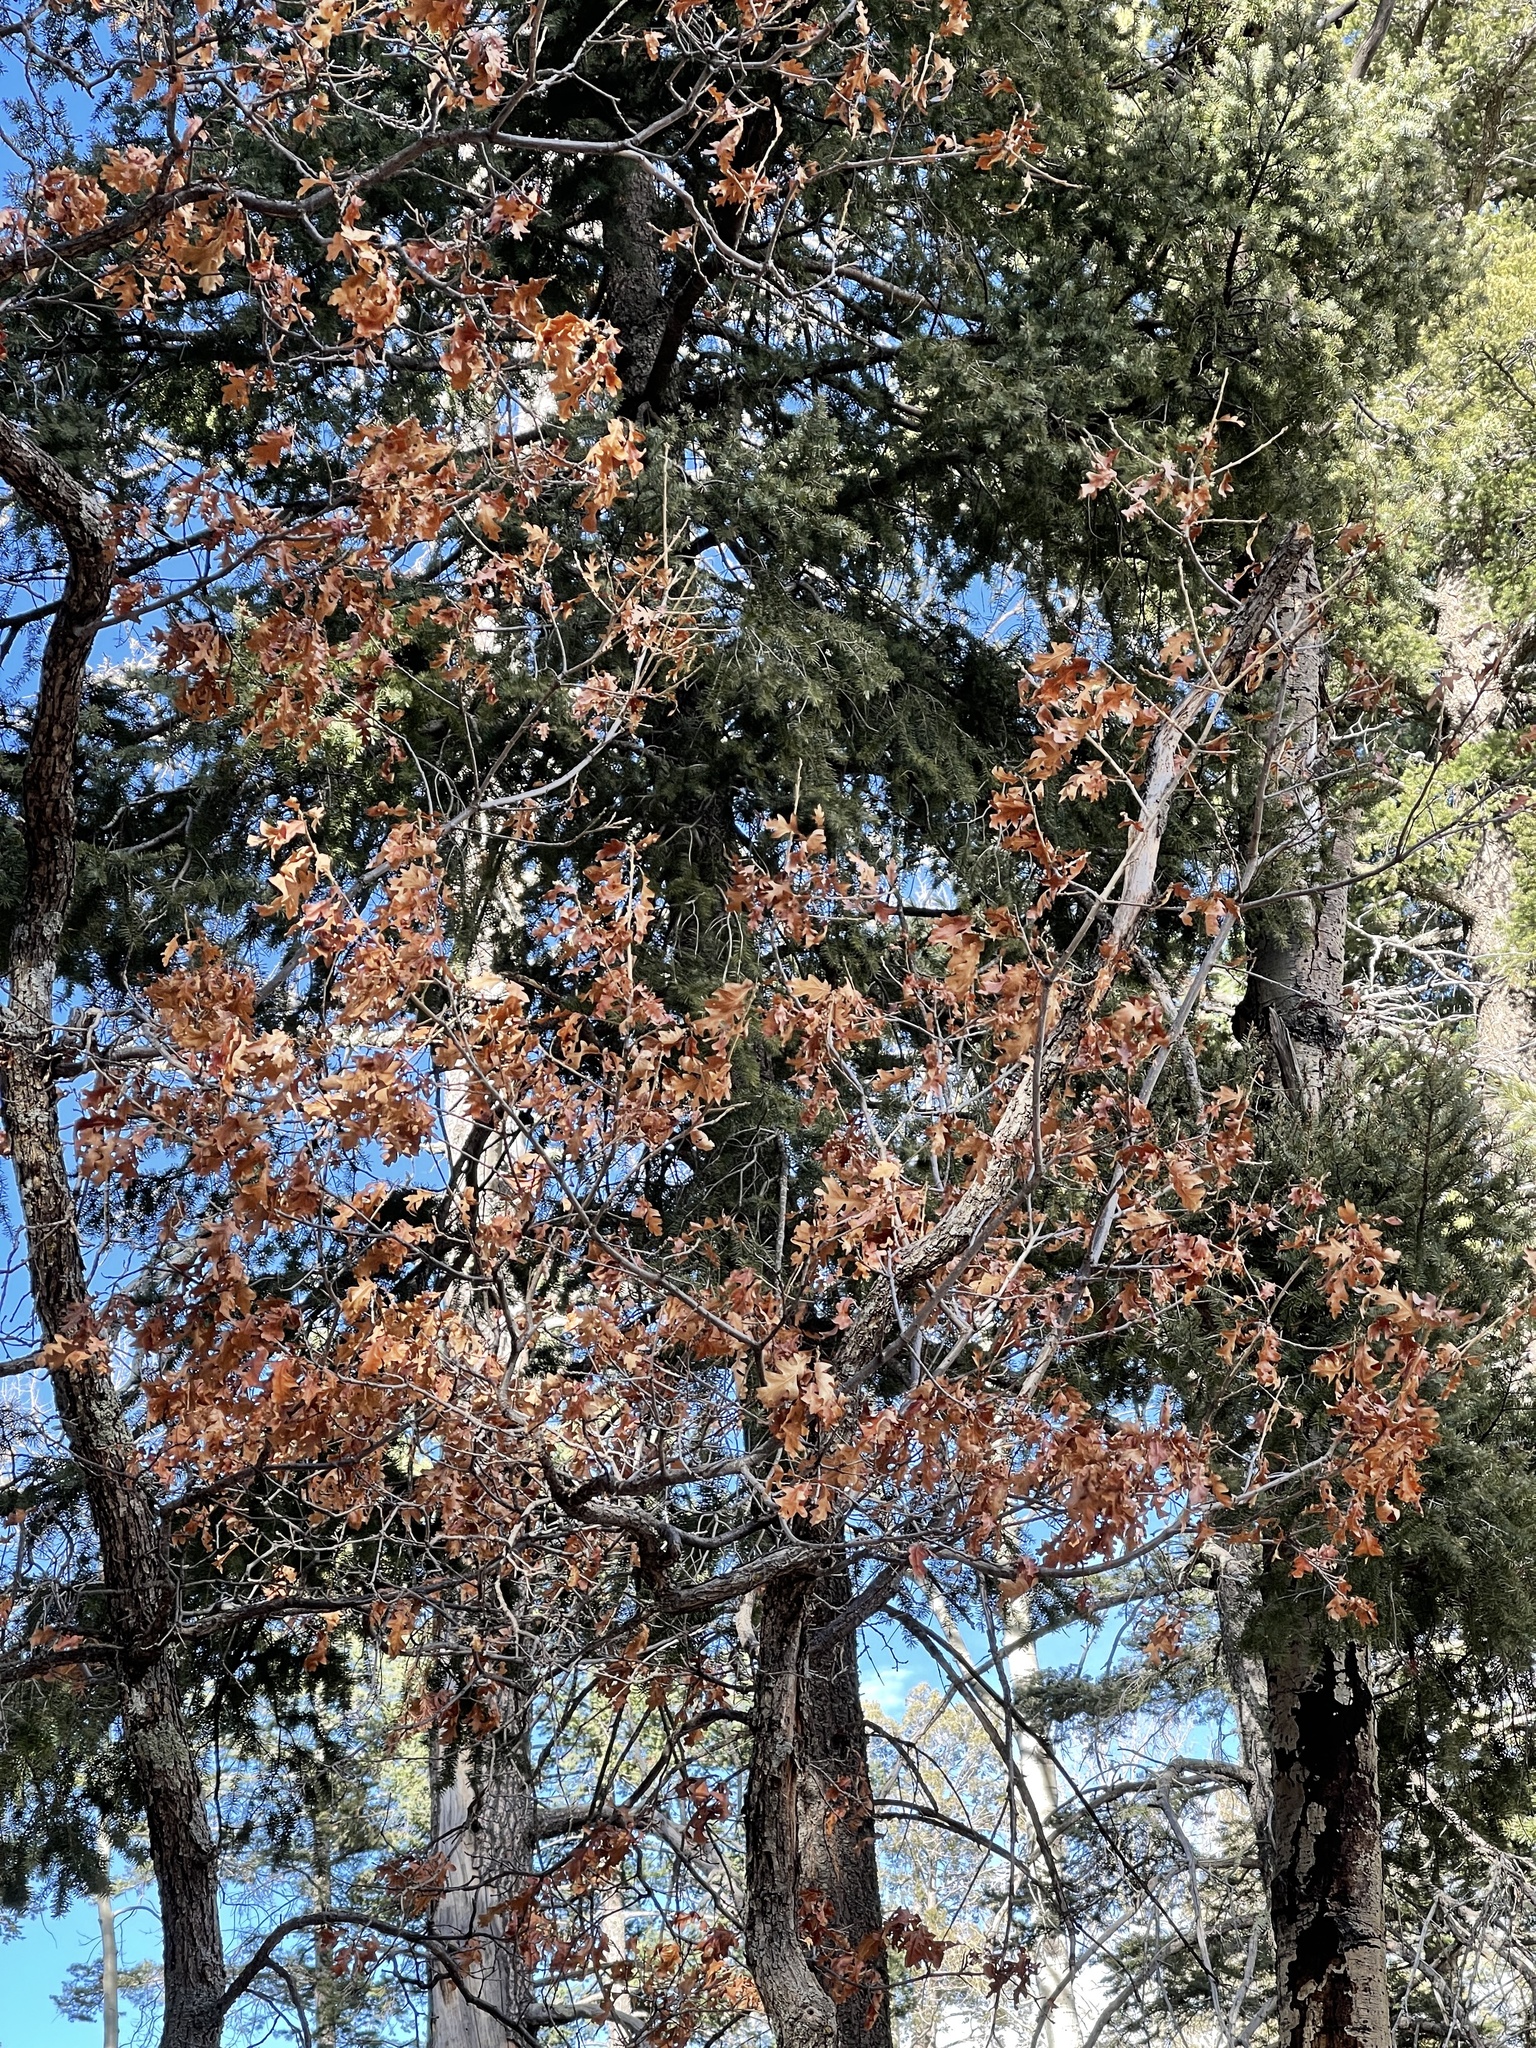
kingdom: Plantae
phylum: Tracheophyta
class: Magnoliopsida
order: Fagales
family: Fagaceae
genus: Quercus
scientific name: Quercus gambelii
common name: Gambel oak
